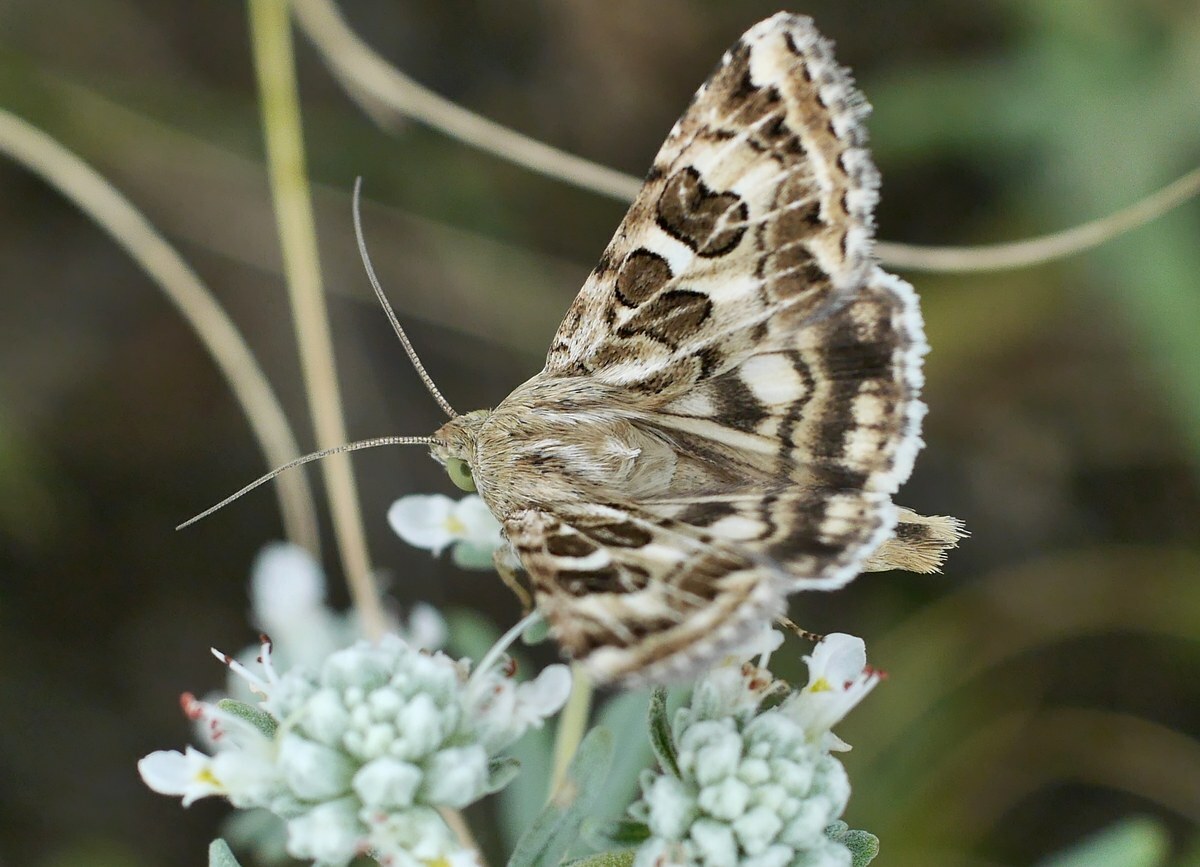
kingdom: Animalia
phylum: Arthropoda
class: Insecta
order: Lepidoptera
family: Noctuidae
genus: Protoschinia
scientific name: Protoschinia scutosa
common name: Spotted clover
